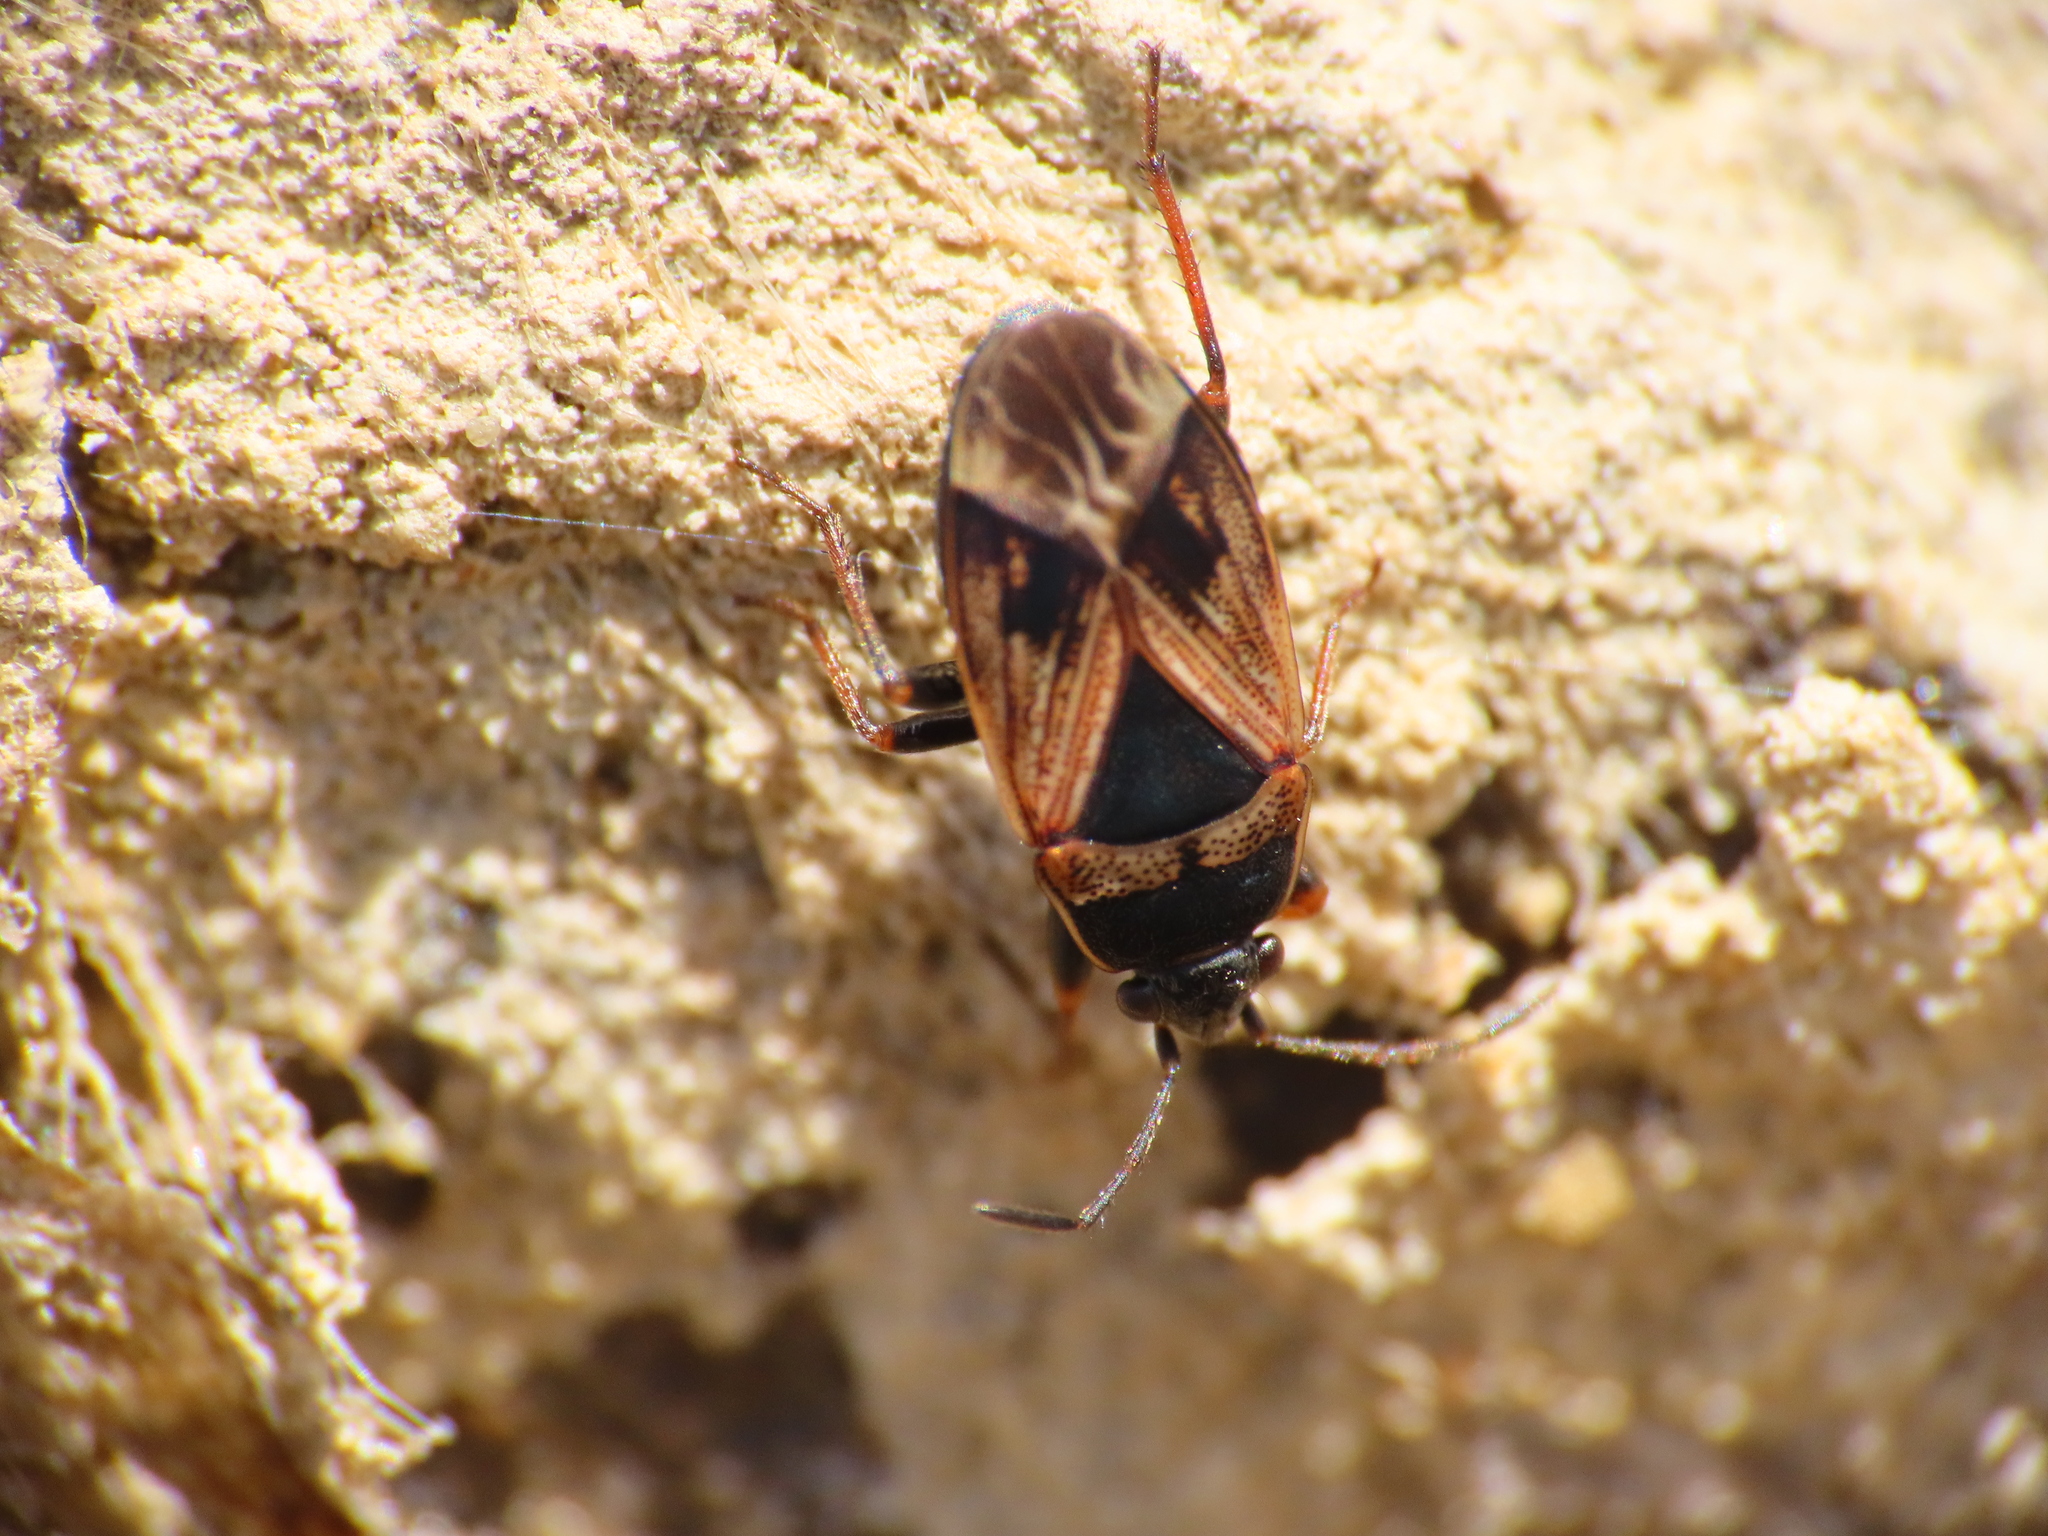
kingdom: Animalia
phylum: Arthropoda
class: Insecta
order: Hemiptera
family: Rhyparochromidae
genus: Trapezonotus
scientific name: Trapezonotus dispar
